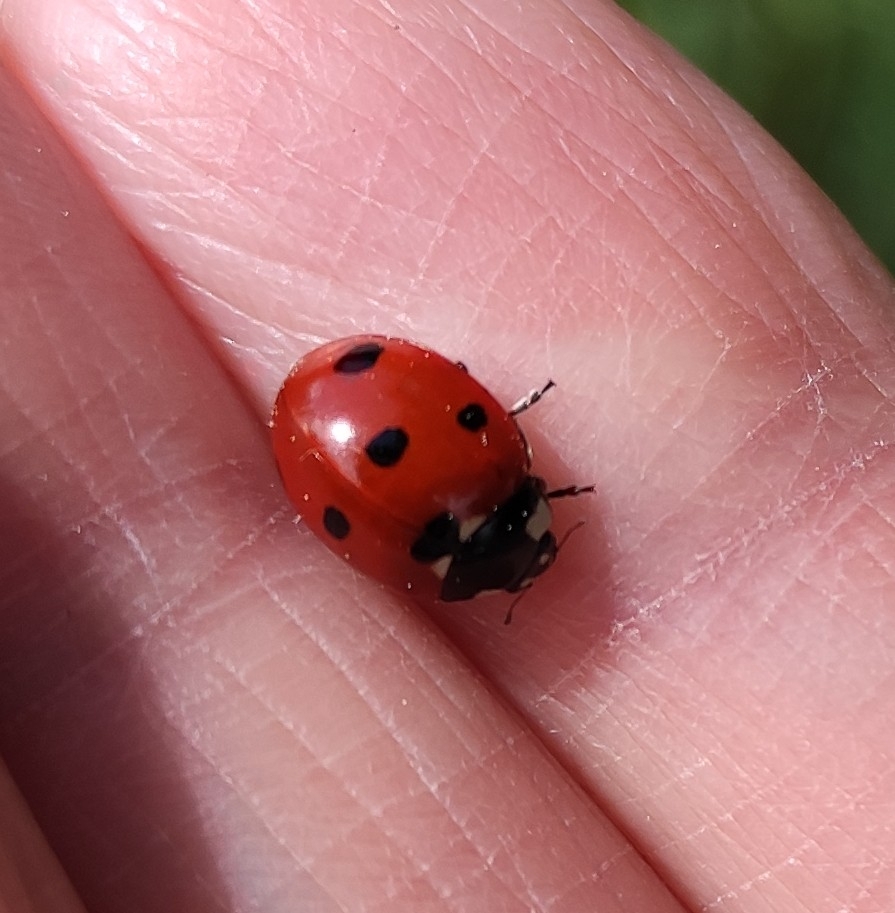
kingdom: Animalia
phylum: Arthropoda
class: Insecta
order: Coleoptera
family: Coccinellidae
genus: Coccinella
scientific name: Coccinella septempunctata
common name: Sevenspotted lady beetle
